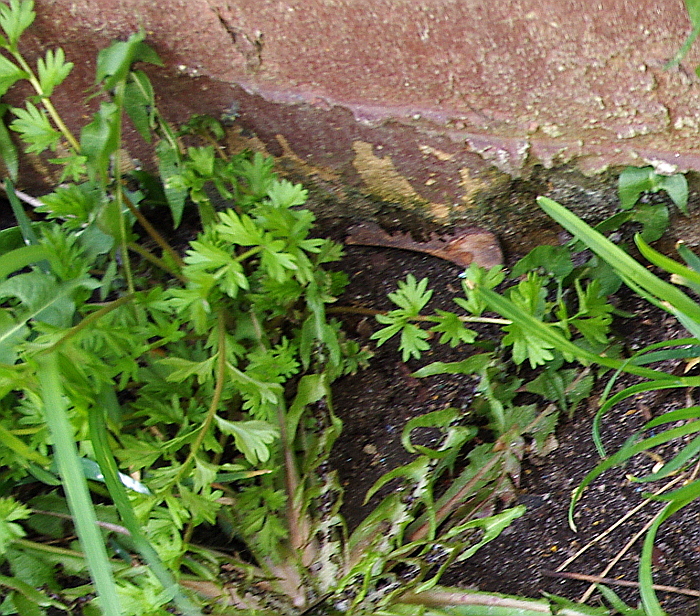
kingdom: Plantae
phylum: Tracheophyta
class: Magnoliopsida
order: Rosales
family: Rosaceae
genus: Potentilla
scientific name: Potentilla supina
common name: Prostrate cinquefoil
